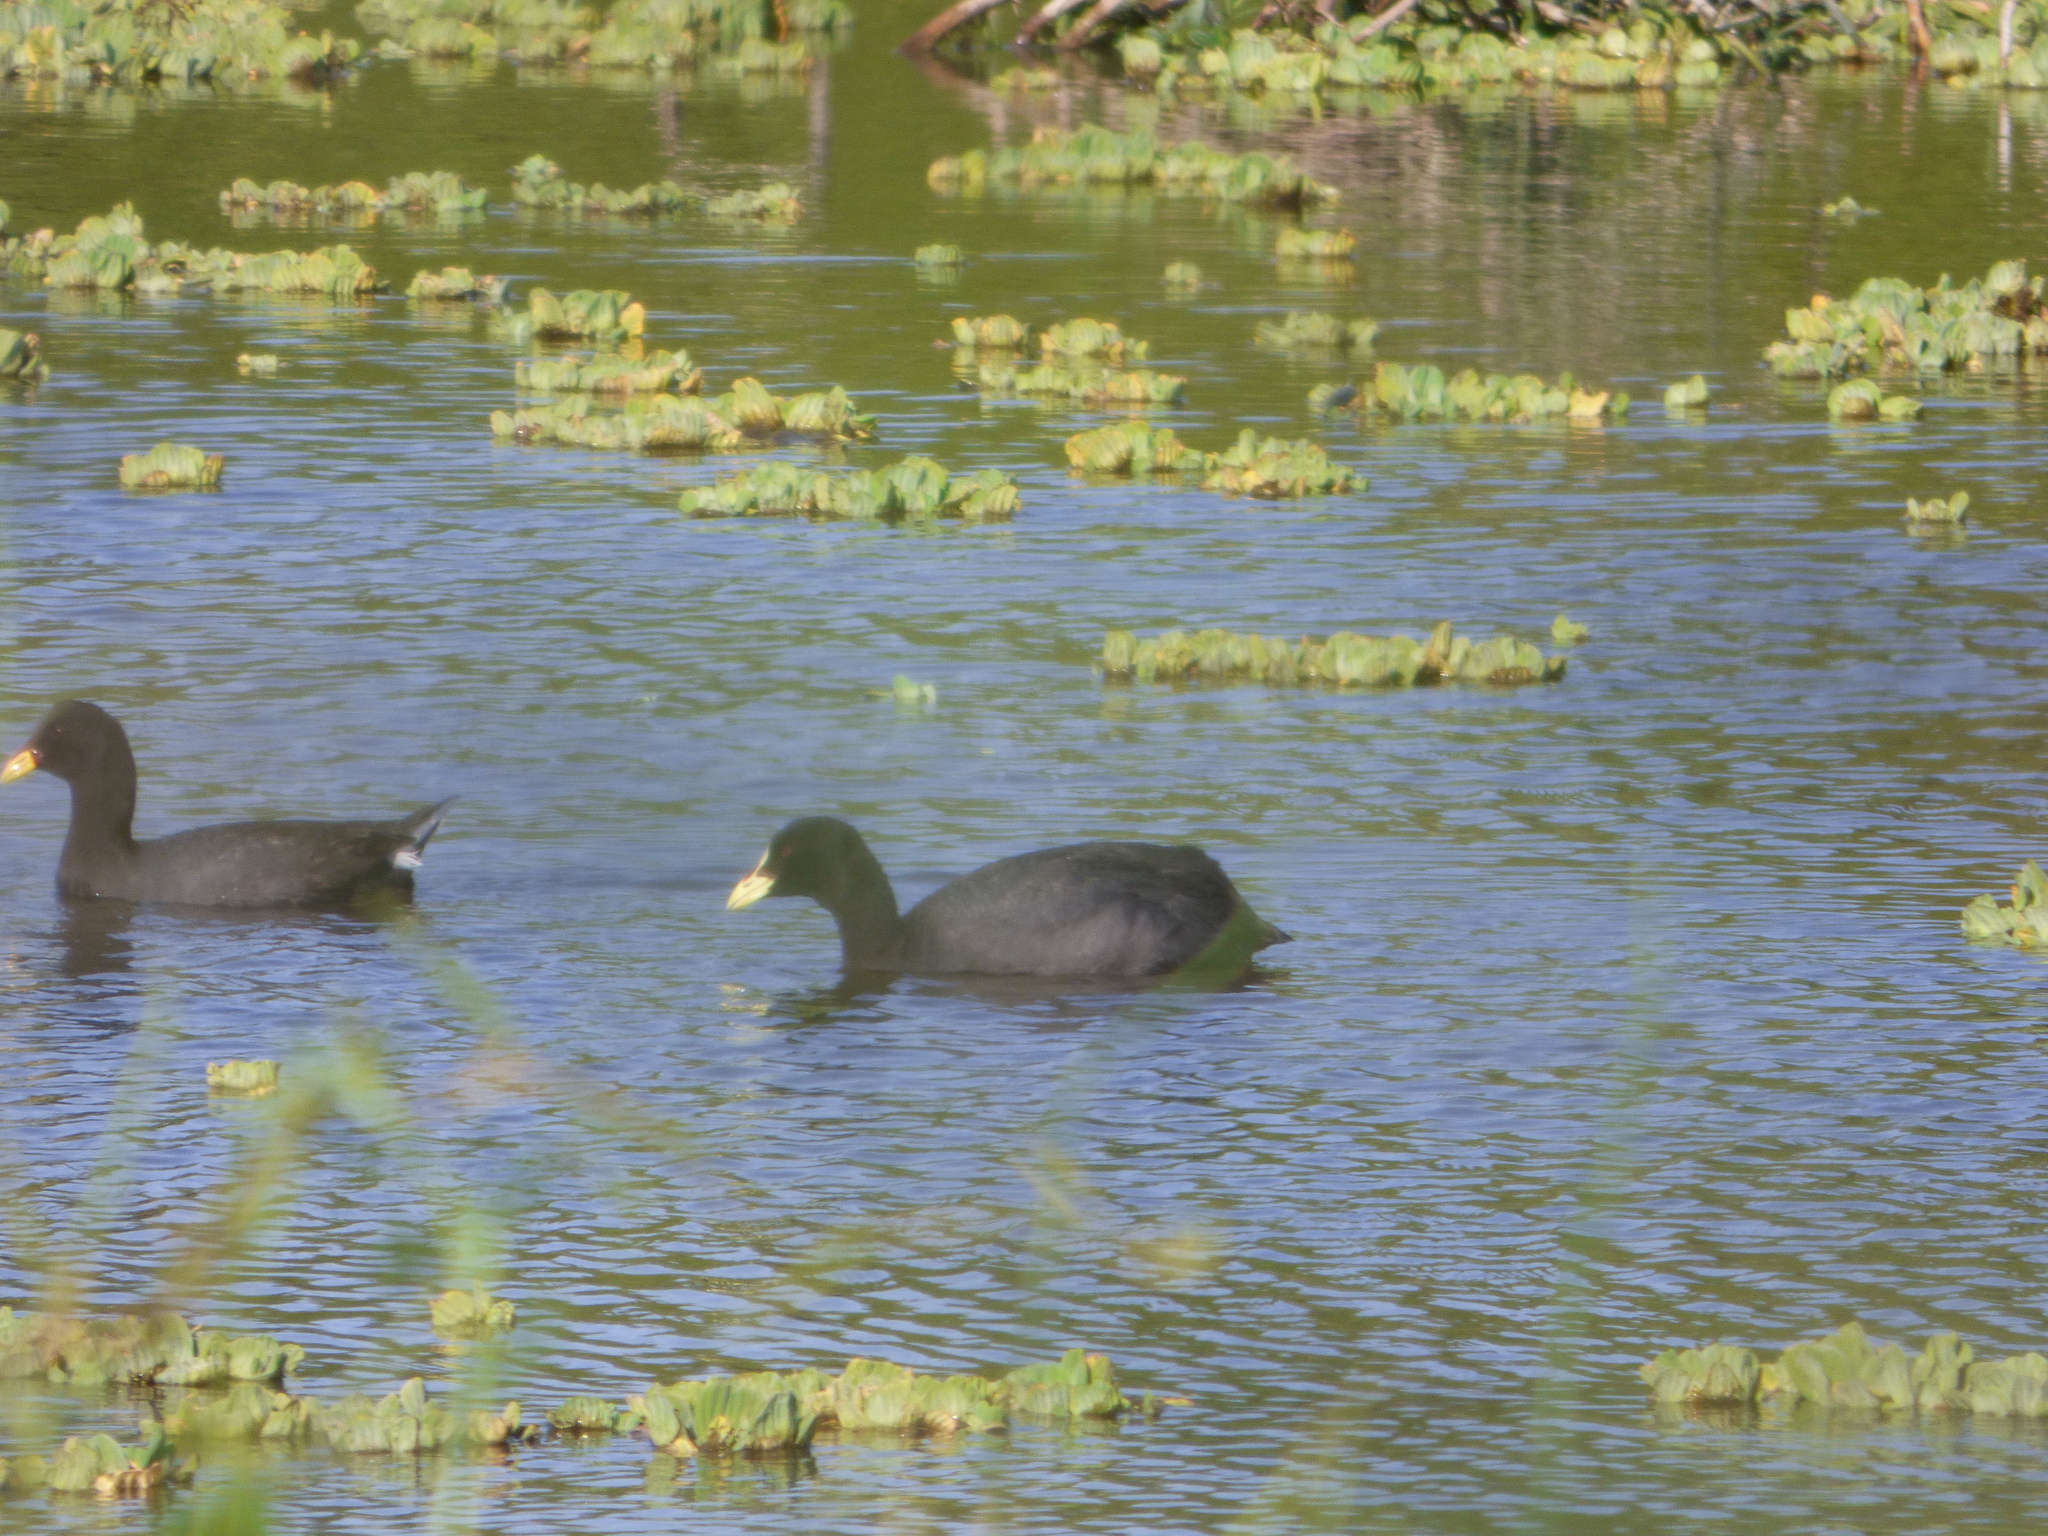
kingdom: Animalia
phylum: Chordata
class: Aves
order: Gruiformes
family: Rallidae
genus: Fulica
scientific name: Fulica armillata
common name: Red-gartered coot
